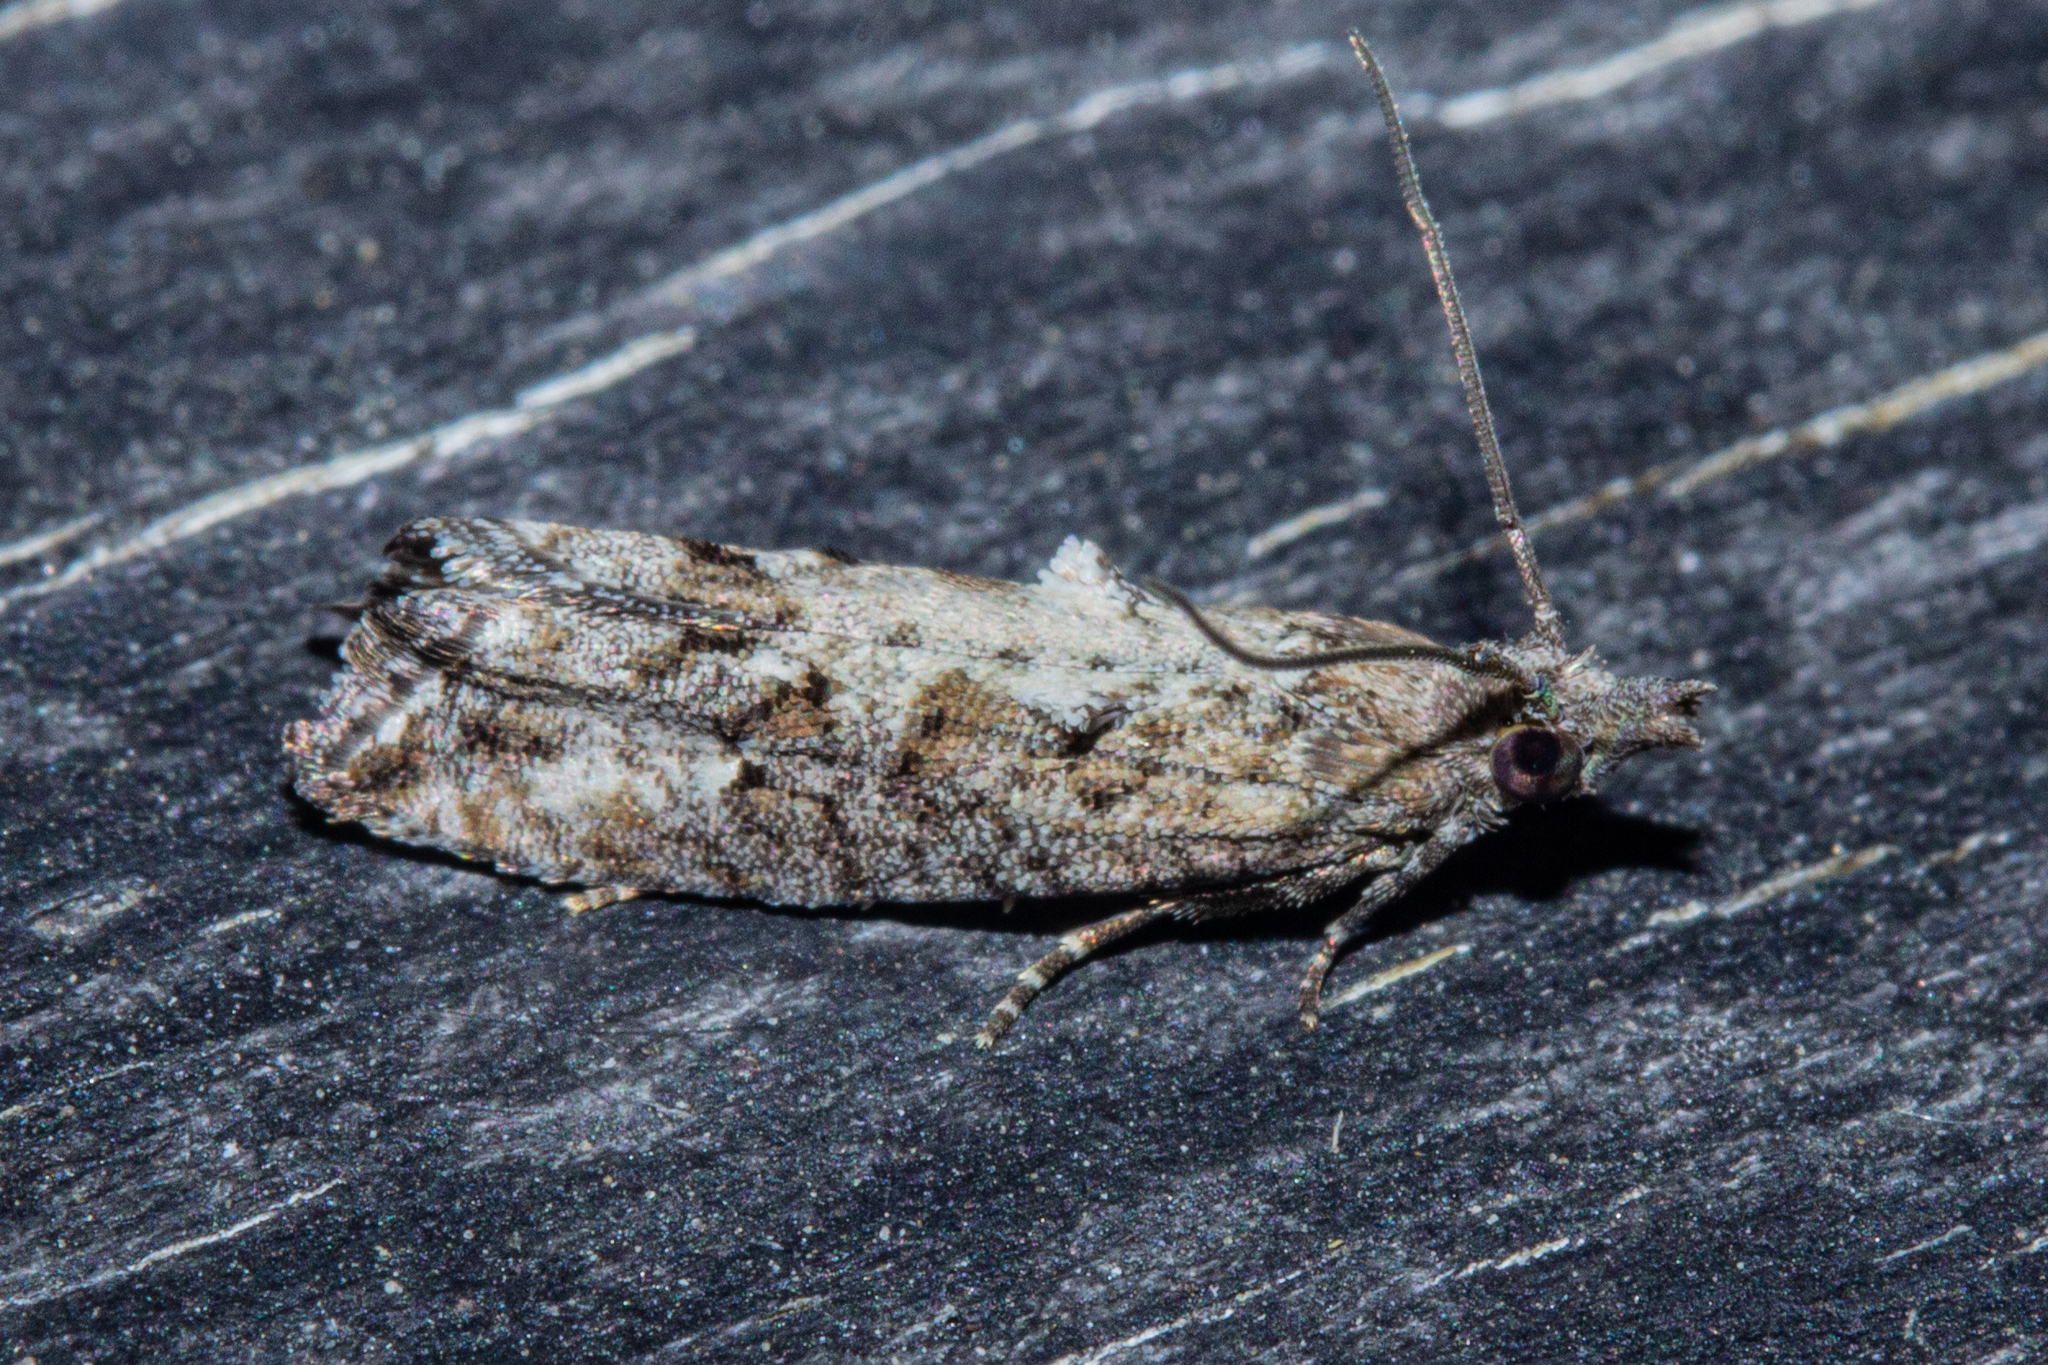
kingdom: Animalia
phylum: Arthropoda
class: Insecta
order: Lepidoptera
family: Tortricidae
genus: Strepsicrates
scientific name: Strepsicrates ejectana
